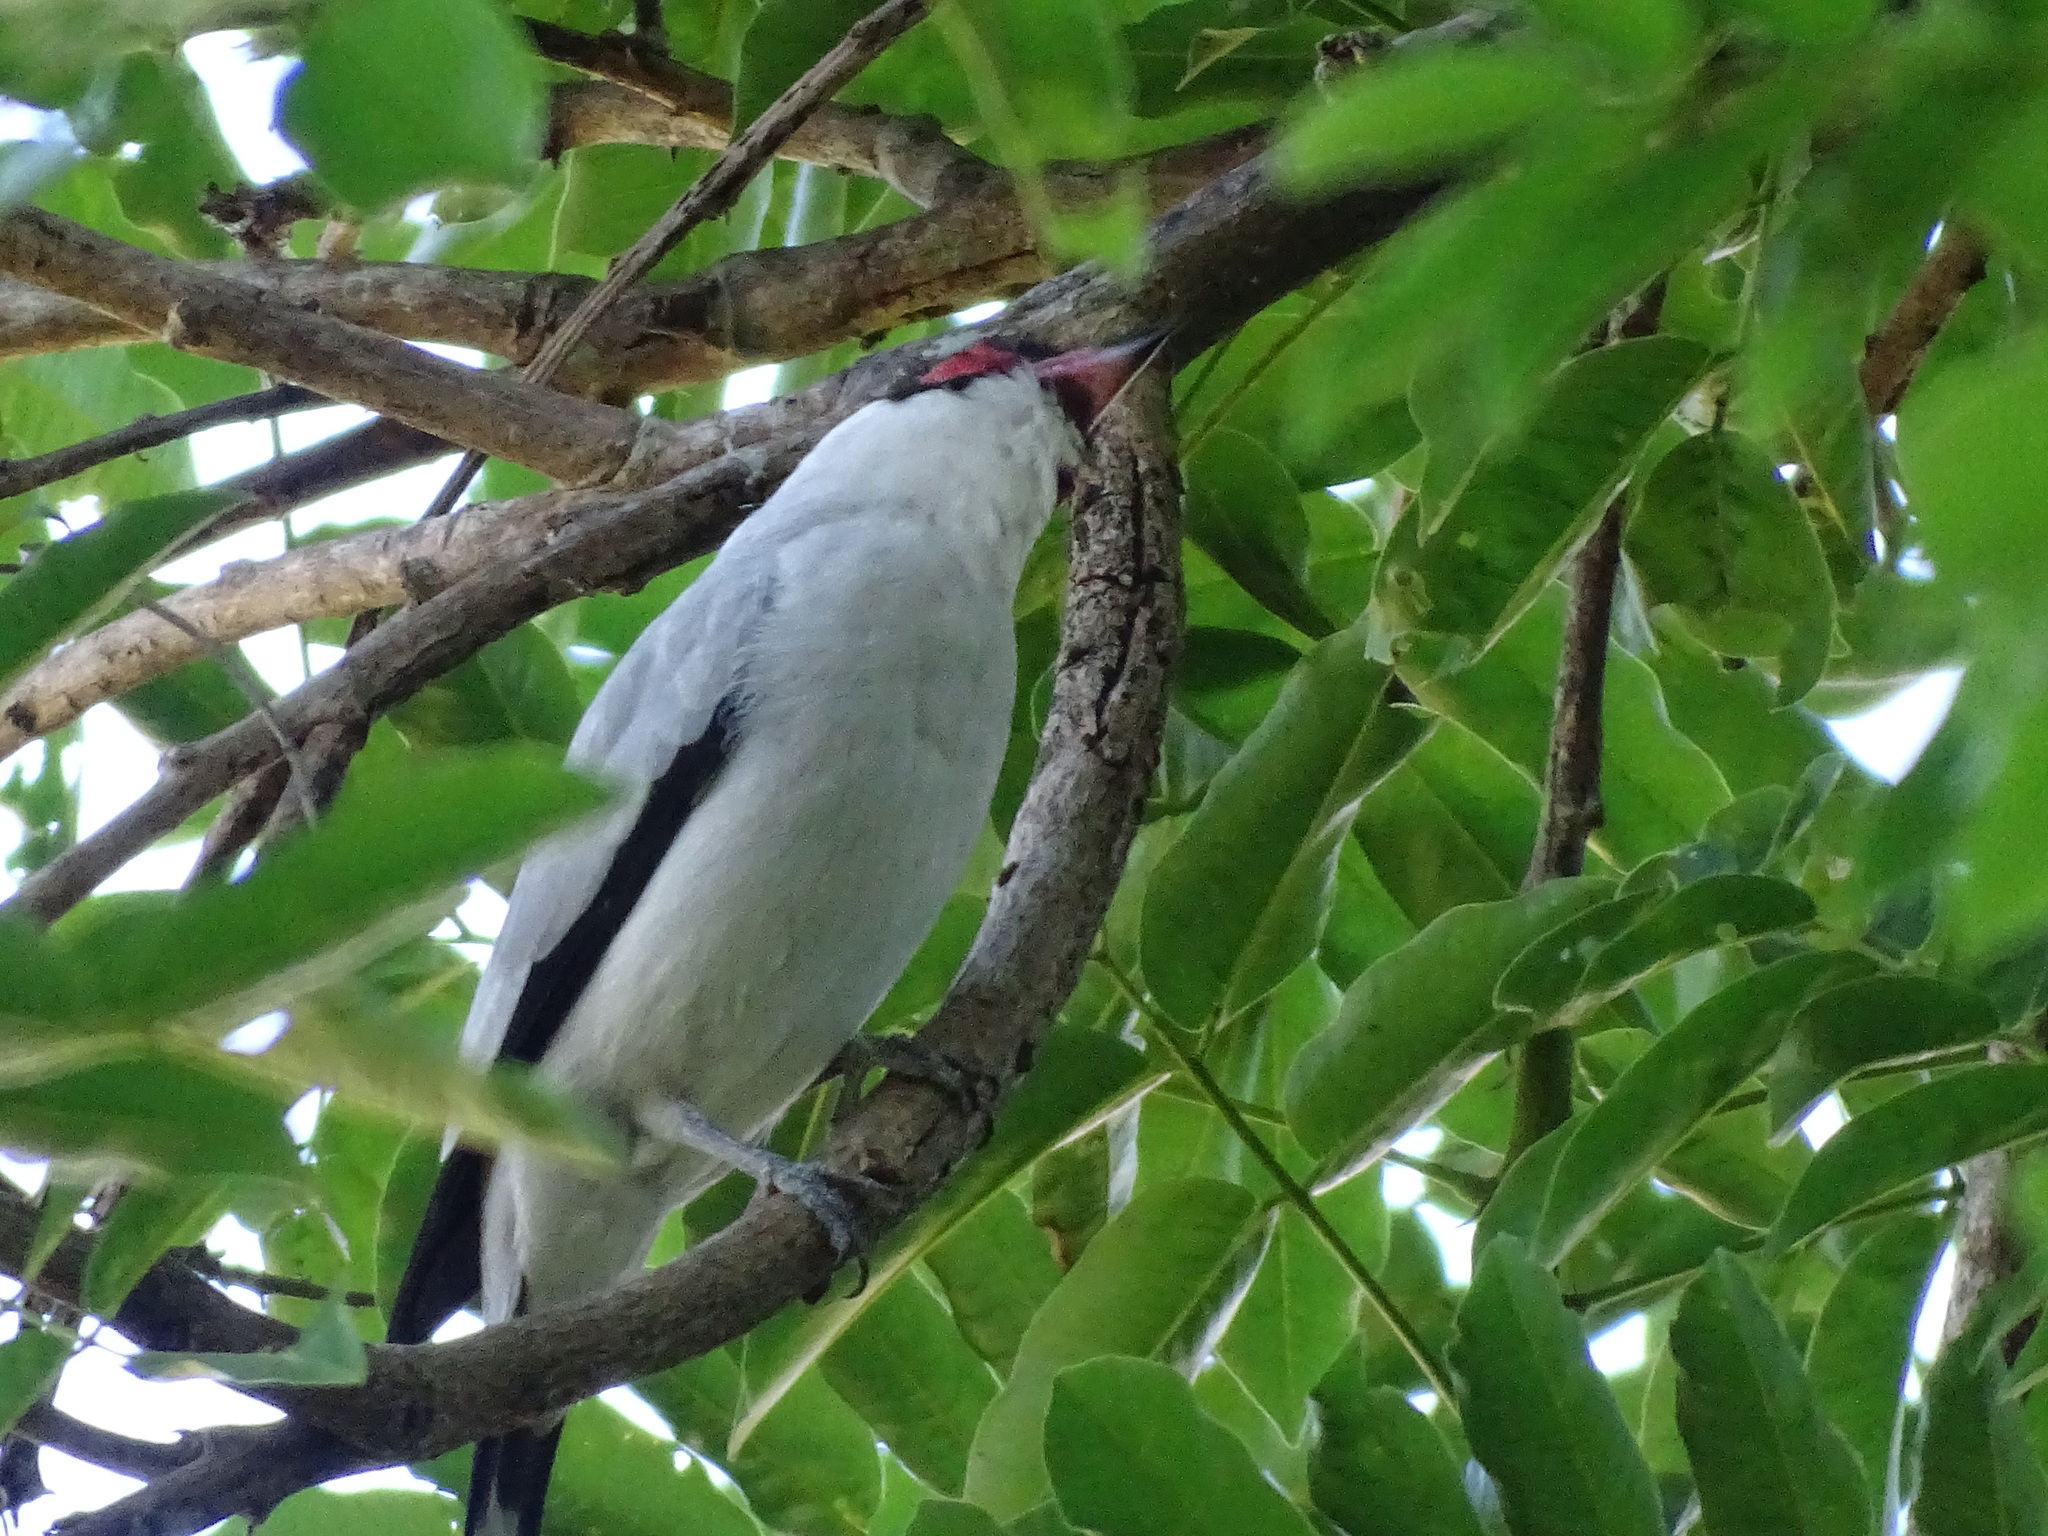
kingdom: Animalia
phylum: Chordata
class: Aves
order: Passeriformes
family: Cotingidae
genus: Tityra
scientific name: Tityra semifasciata
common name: Masked tityra
